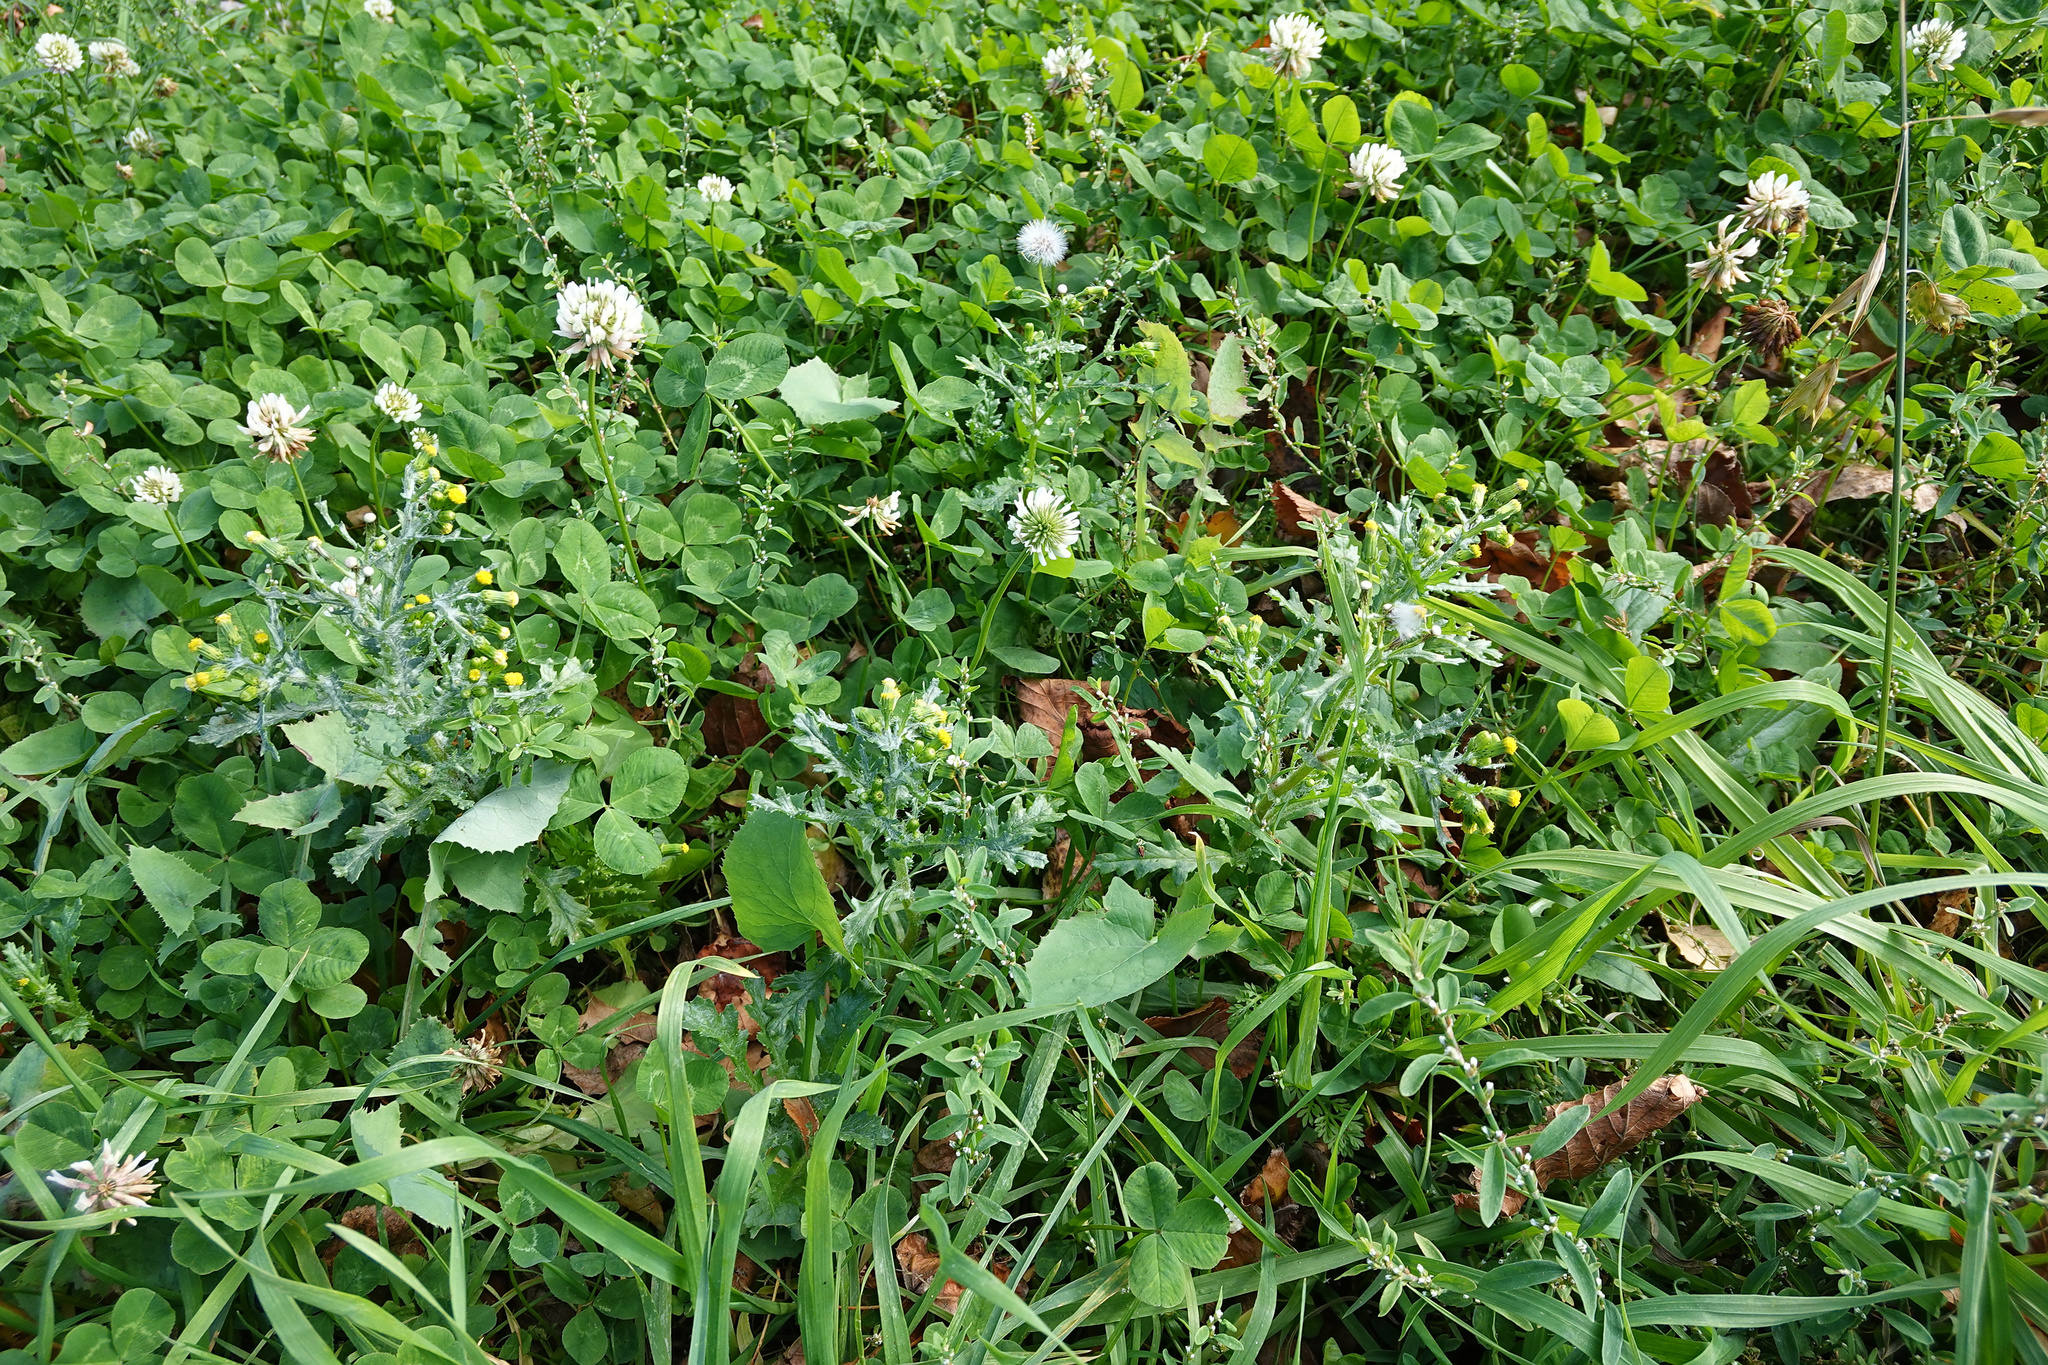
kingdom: Plantae
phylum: Tracheophyta
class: Magnoliopsida
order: Fabales
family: Fabaceae
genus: Trifolium
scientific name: Trifolium repens
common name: White clover
